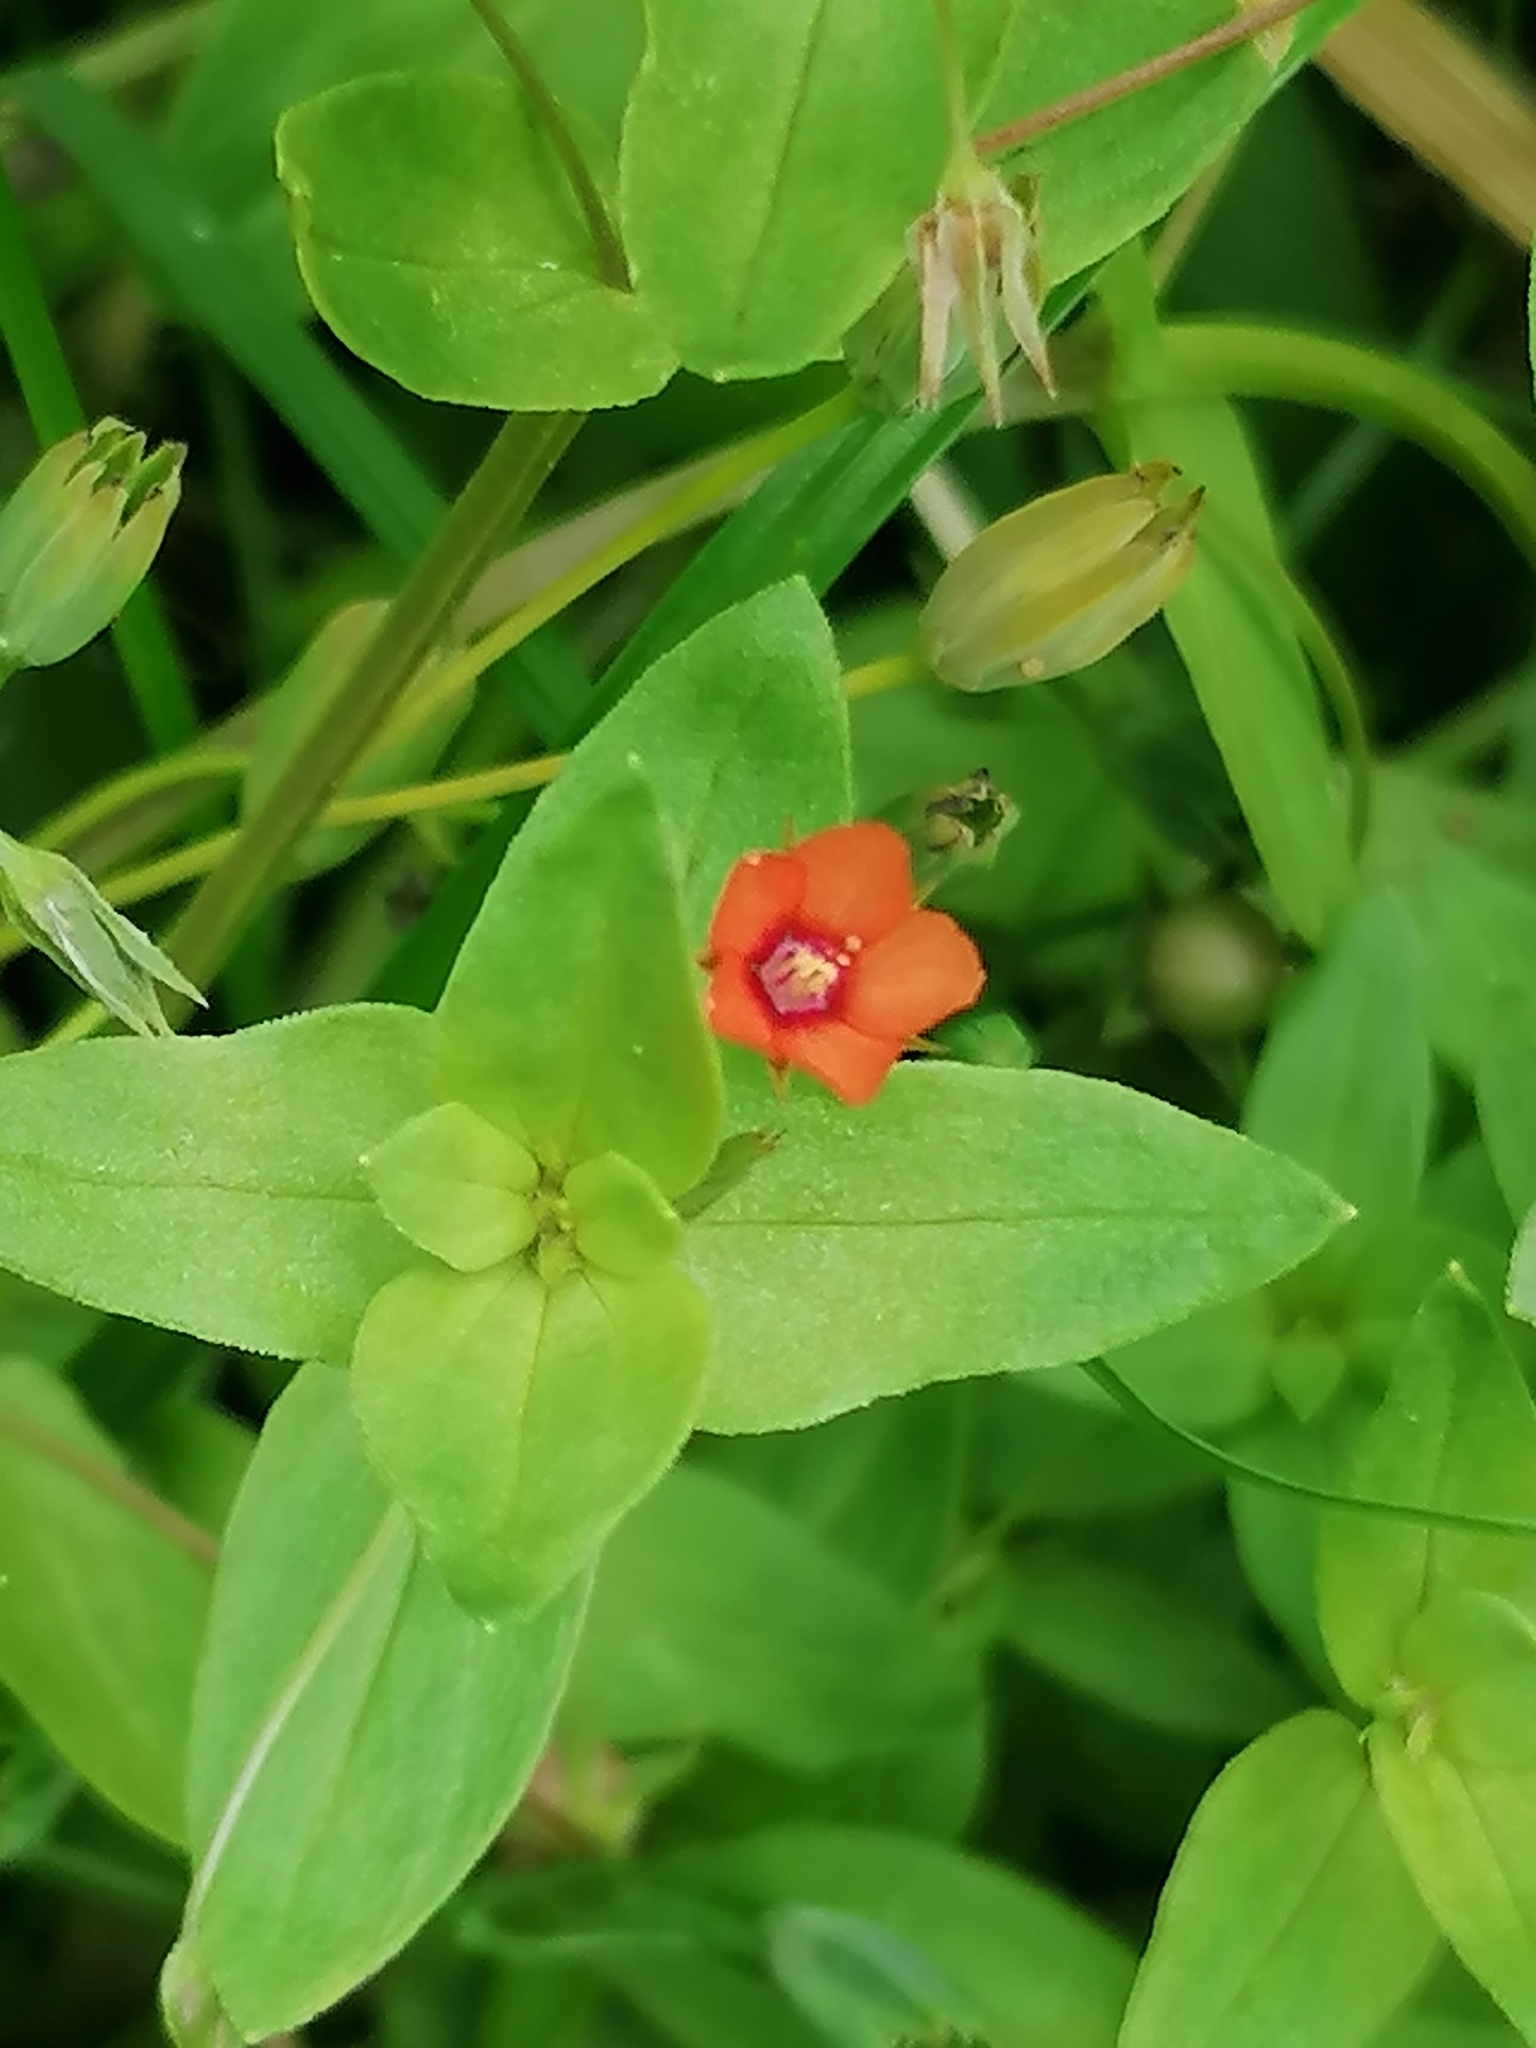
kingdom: Plantae
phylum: Tracheophyta
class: Magnoliopsida
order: Ericales
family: Primulaceae
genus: Lysimachia
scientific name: Lysimachia arvensis
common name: Scarlet pimpernel
